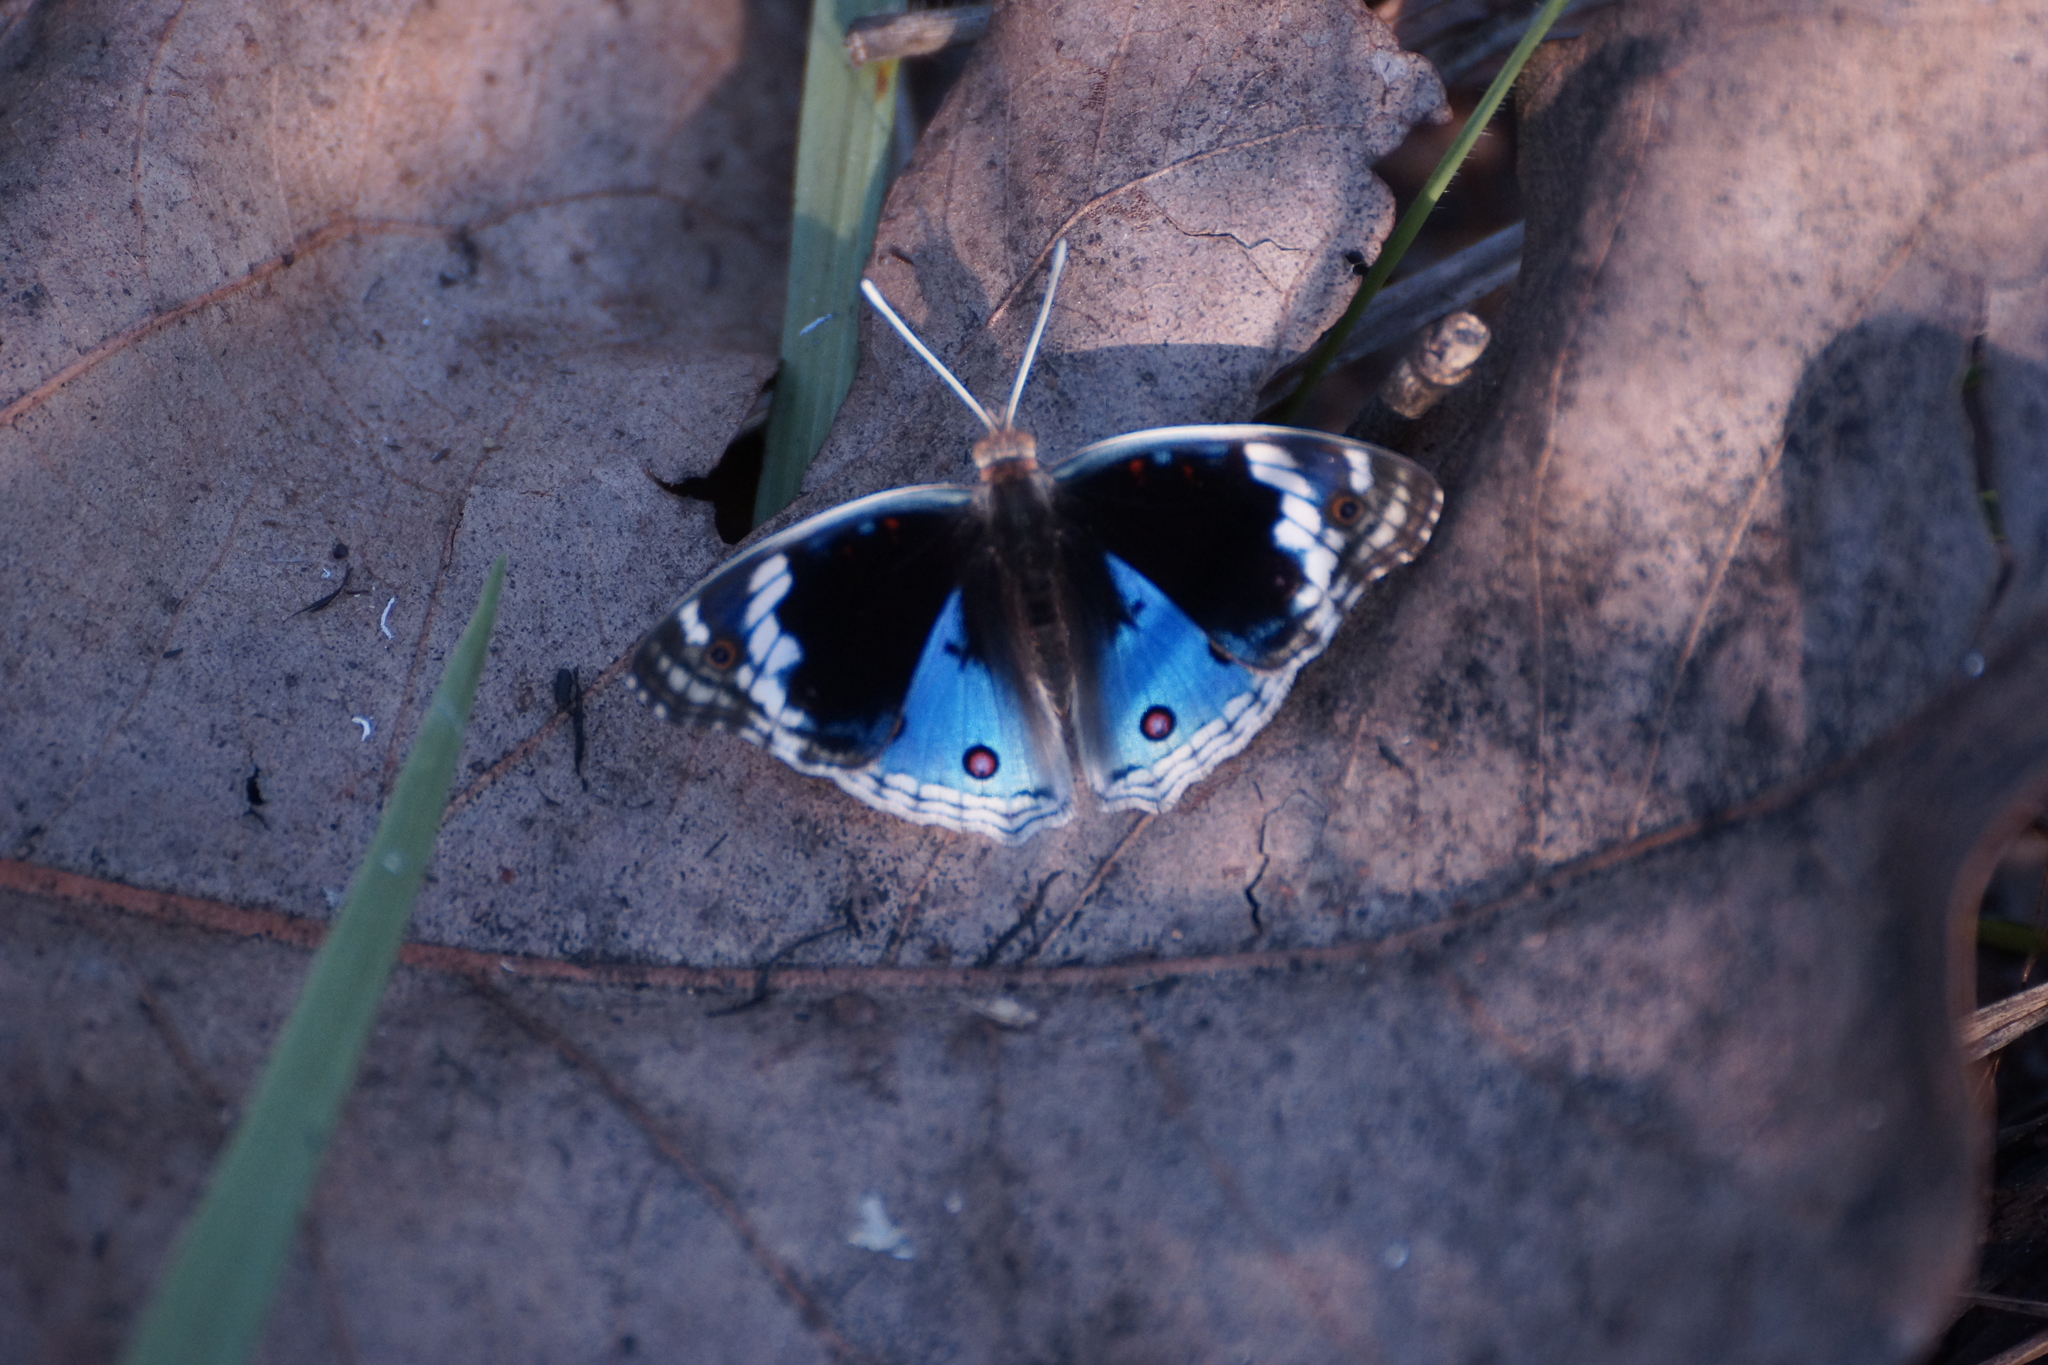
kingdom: Animalia
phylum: Arthropoda
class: Insecta
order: Lepidoptera
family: Nymphalidae
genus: Junonia
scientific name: Junonia orithya
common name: Blue pansy
